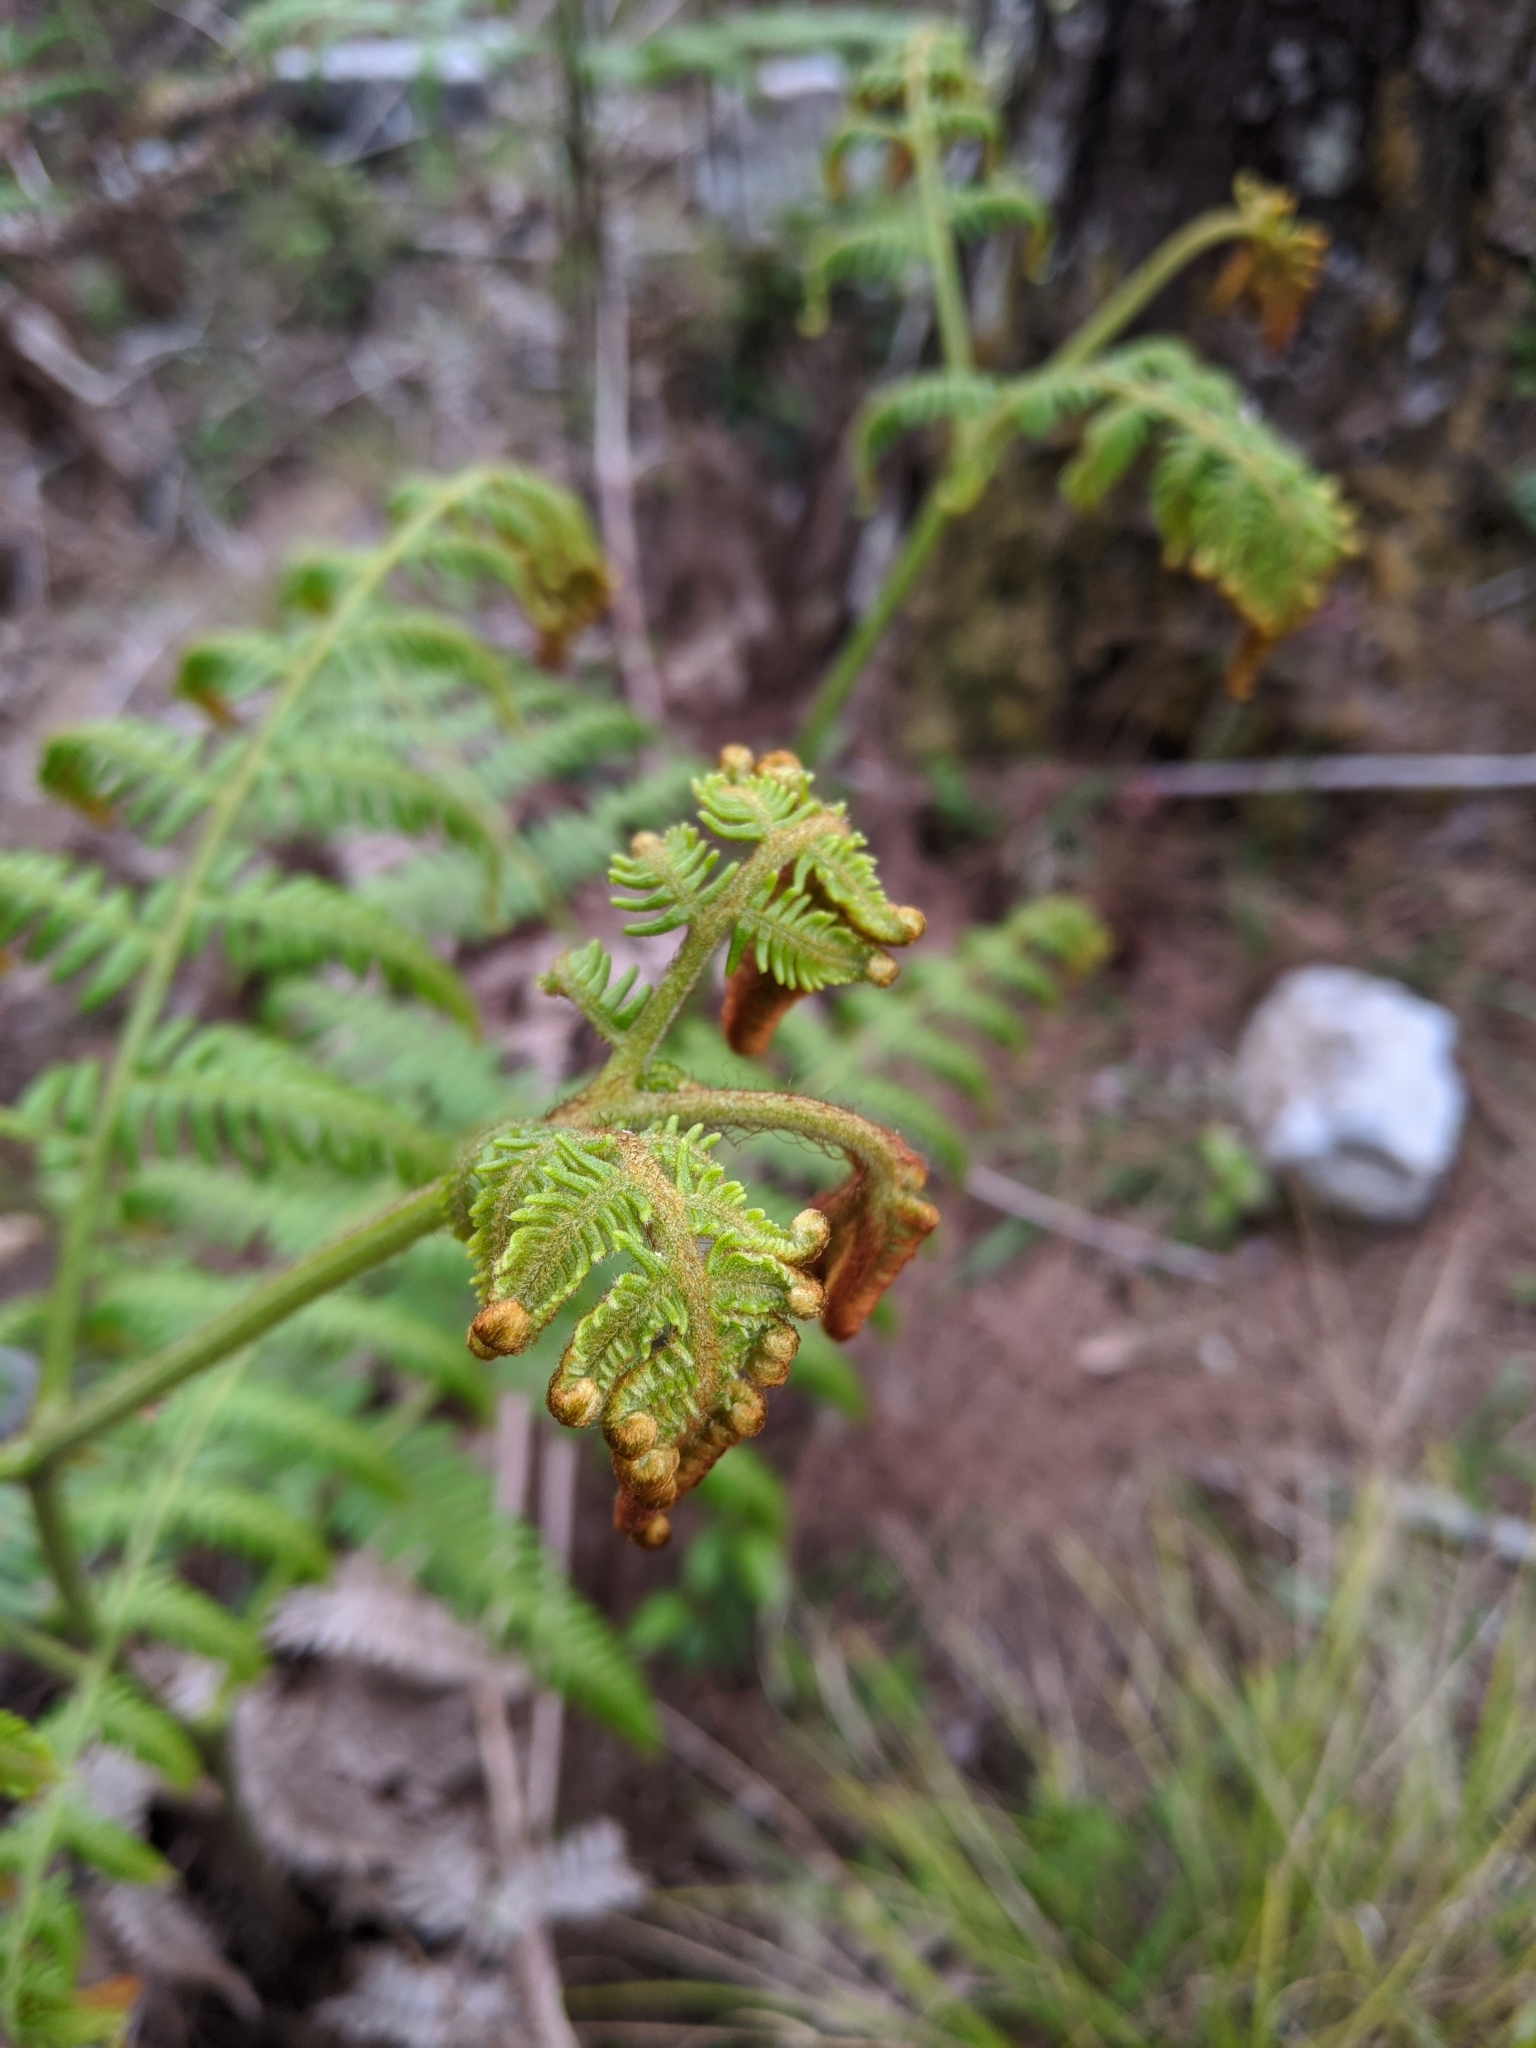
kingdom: Plantae
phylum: Tracheophyta
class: Polypodiopsida
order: Polypodiales
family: Dennstaedtiaceae
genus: Pteridium
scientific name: Pteridium aquilinum
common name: Bracken
